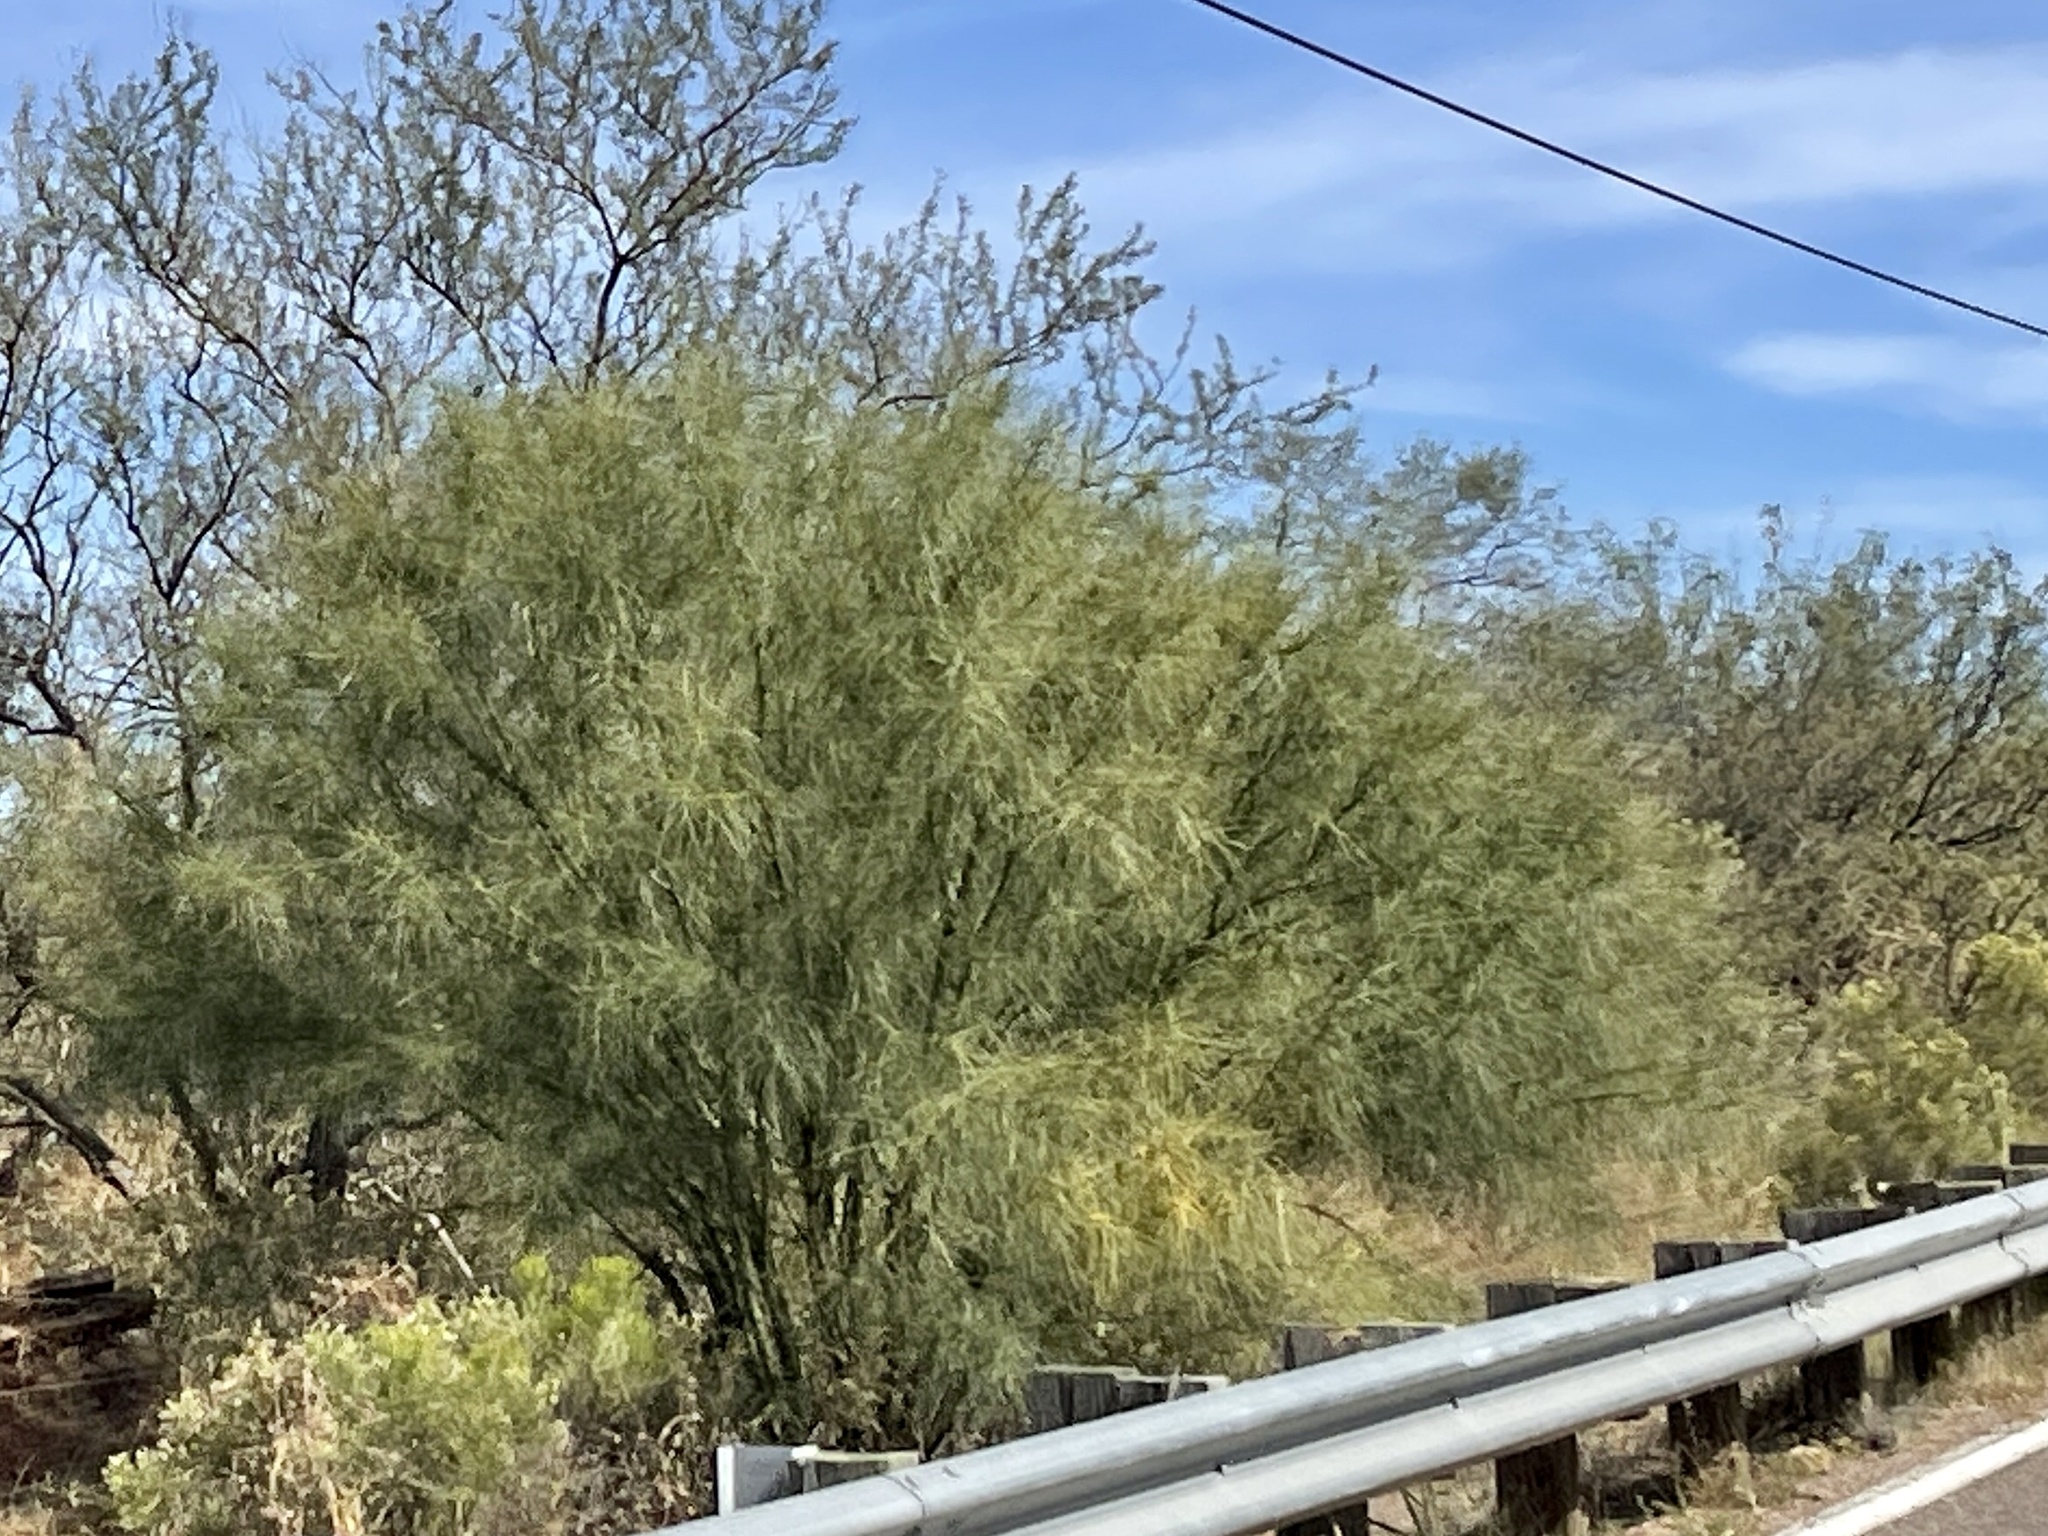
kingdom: Plantae
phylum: Tracheophyta
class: Magnoliopsida
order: Fabales
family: Fabaceae
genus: Parkinsonia
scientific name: Parkinsonia aculeata
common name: Jerusalem thorn
